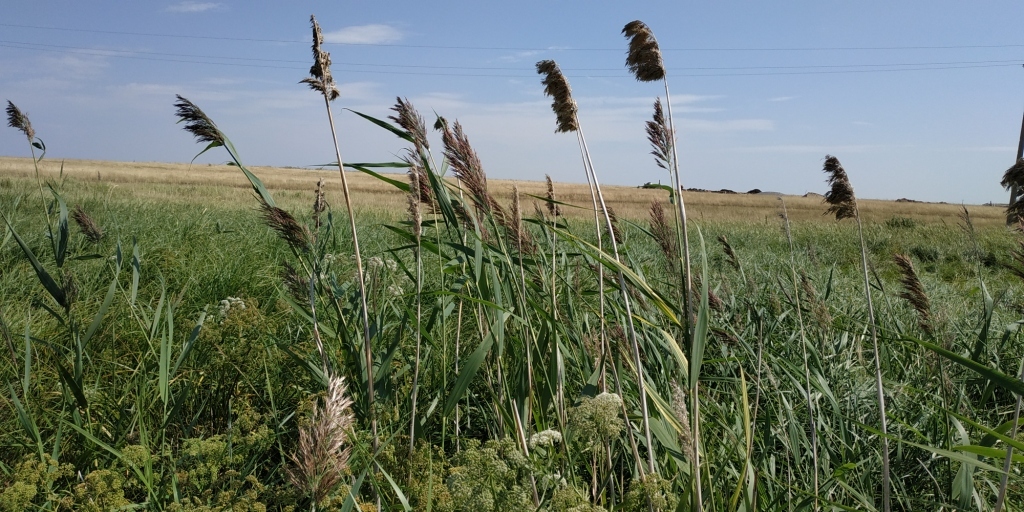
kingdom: Plantae
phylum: Tracheophyta
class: Liliopsida
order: Poales
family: Poaceae
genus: Phragmites
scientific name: Phragmites australis
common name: Common reed
